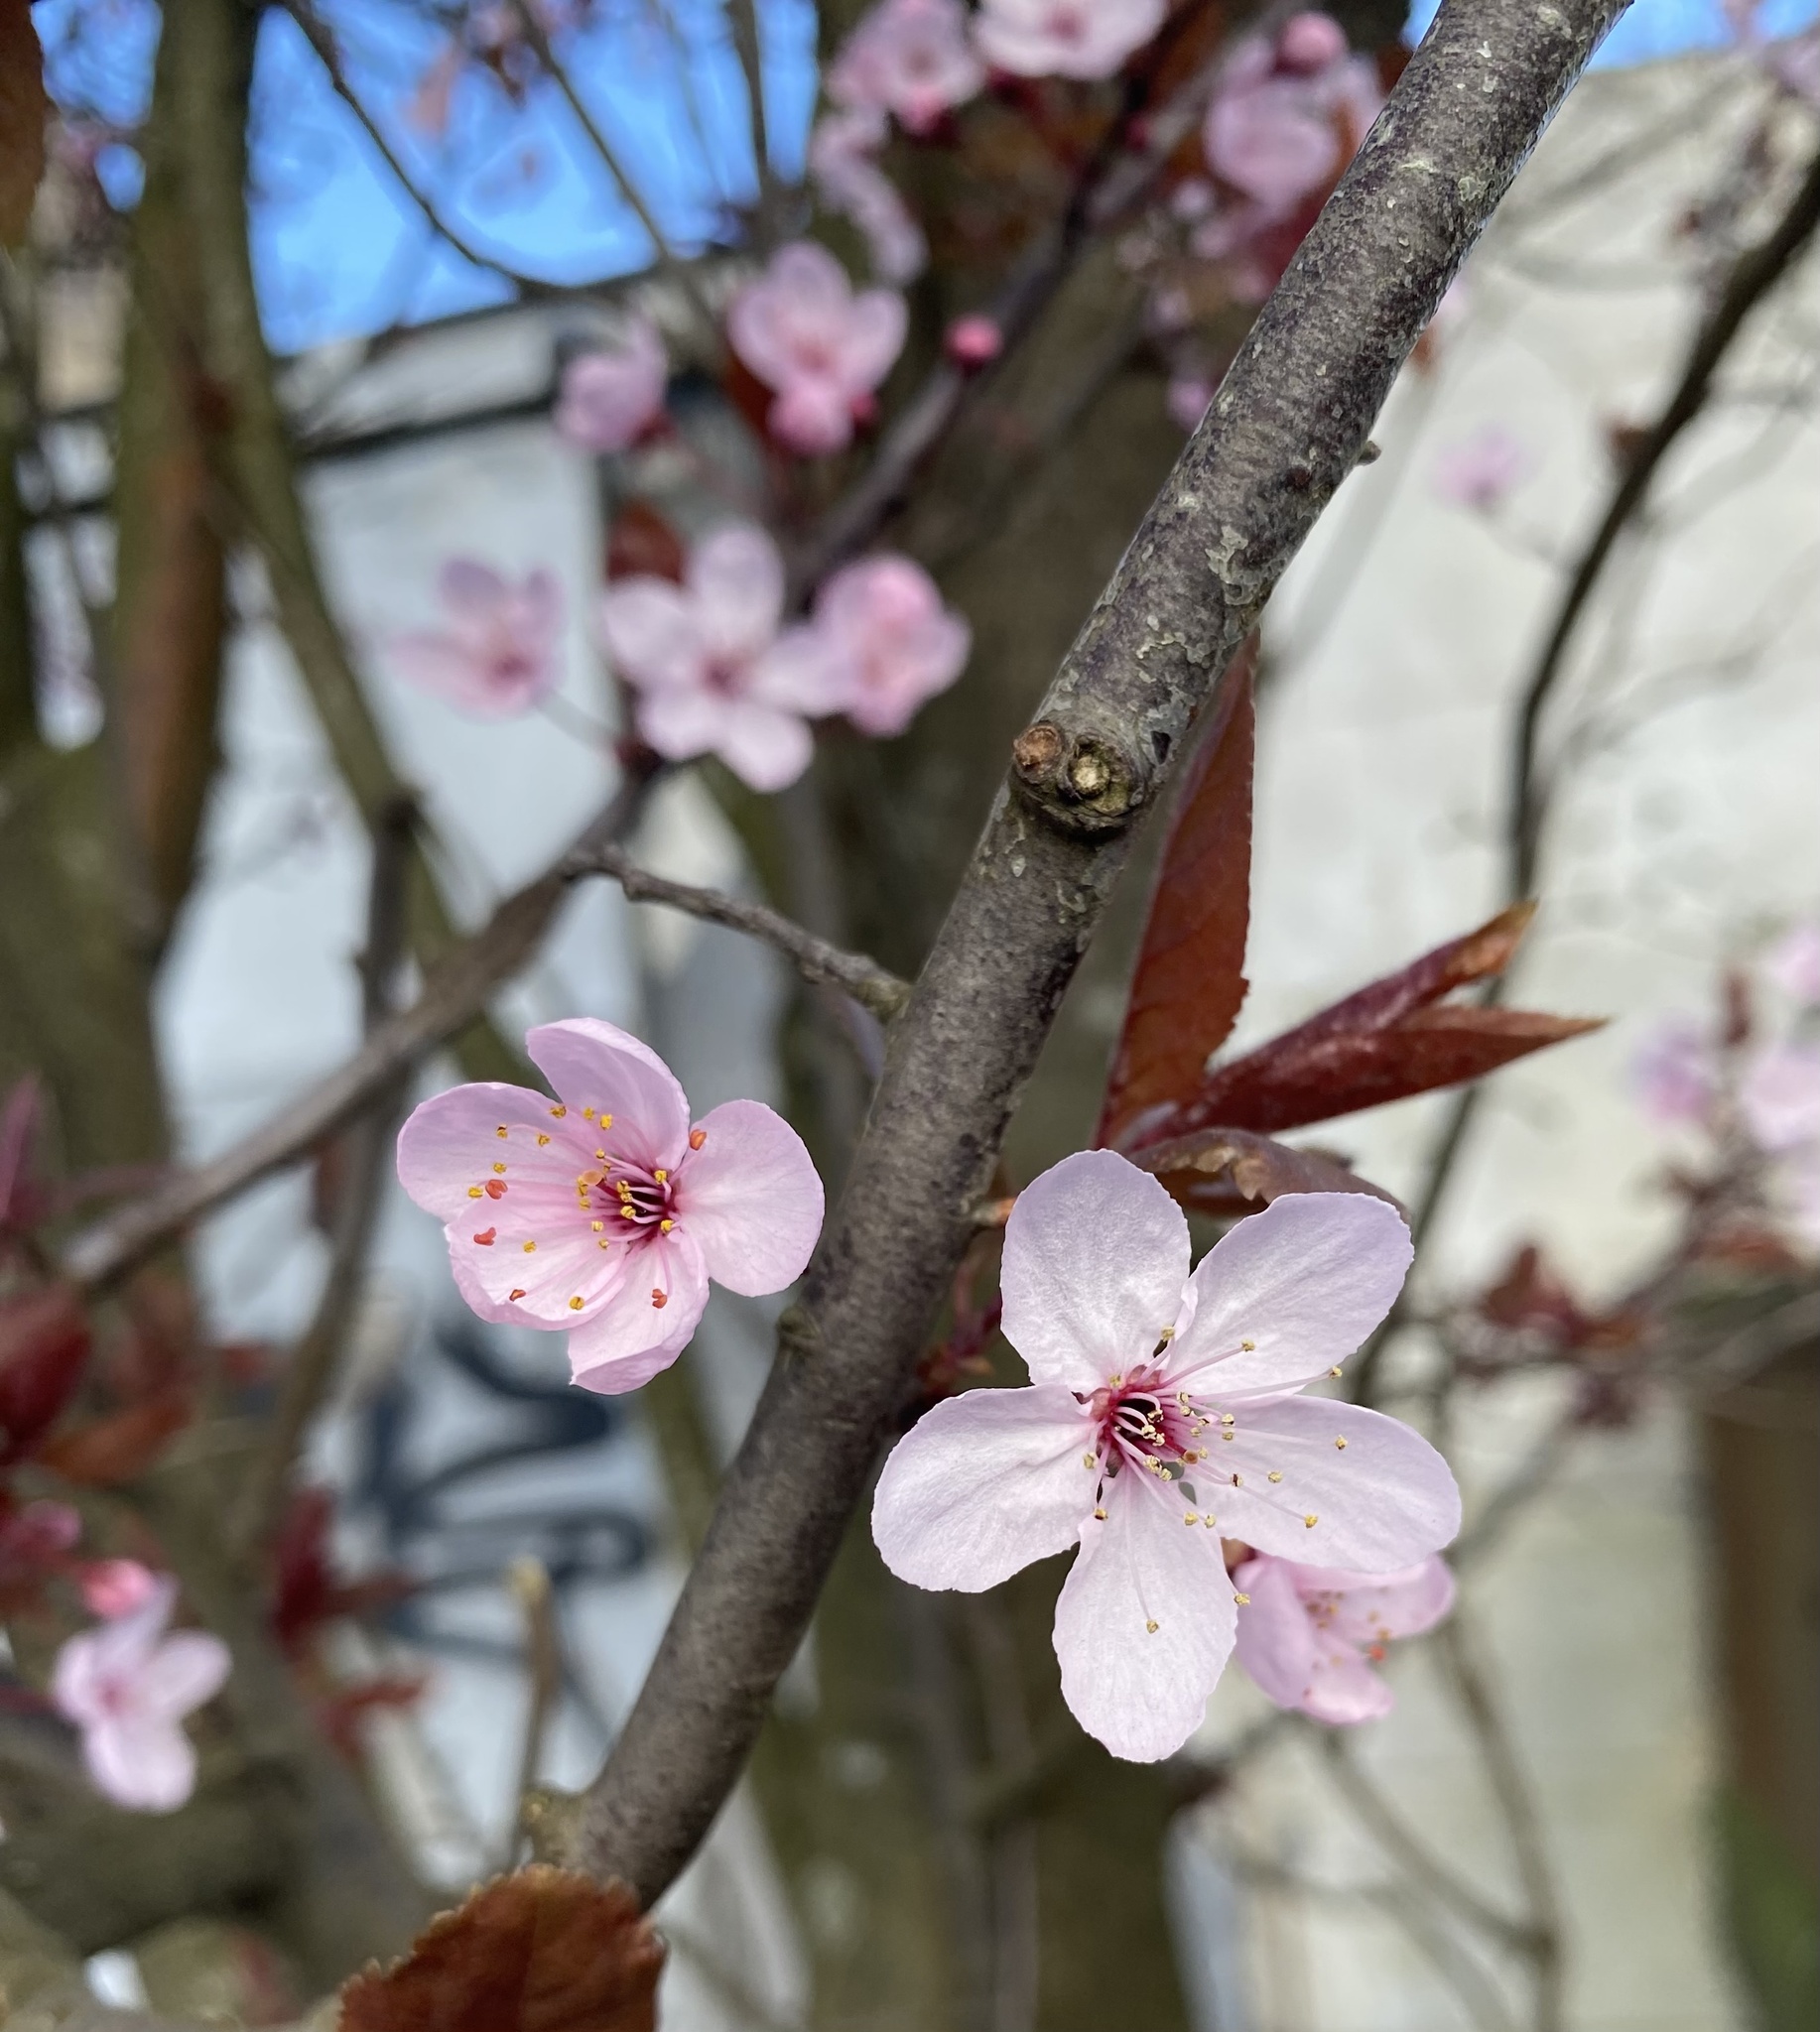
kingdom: Plantae
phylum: Tracheophyta
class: Magnoliopsida
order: Rosales
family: Rosaceae
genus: Prunus
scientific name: Prunus cerasifera
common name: Cherry plum
